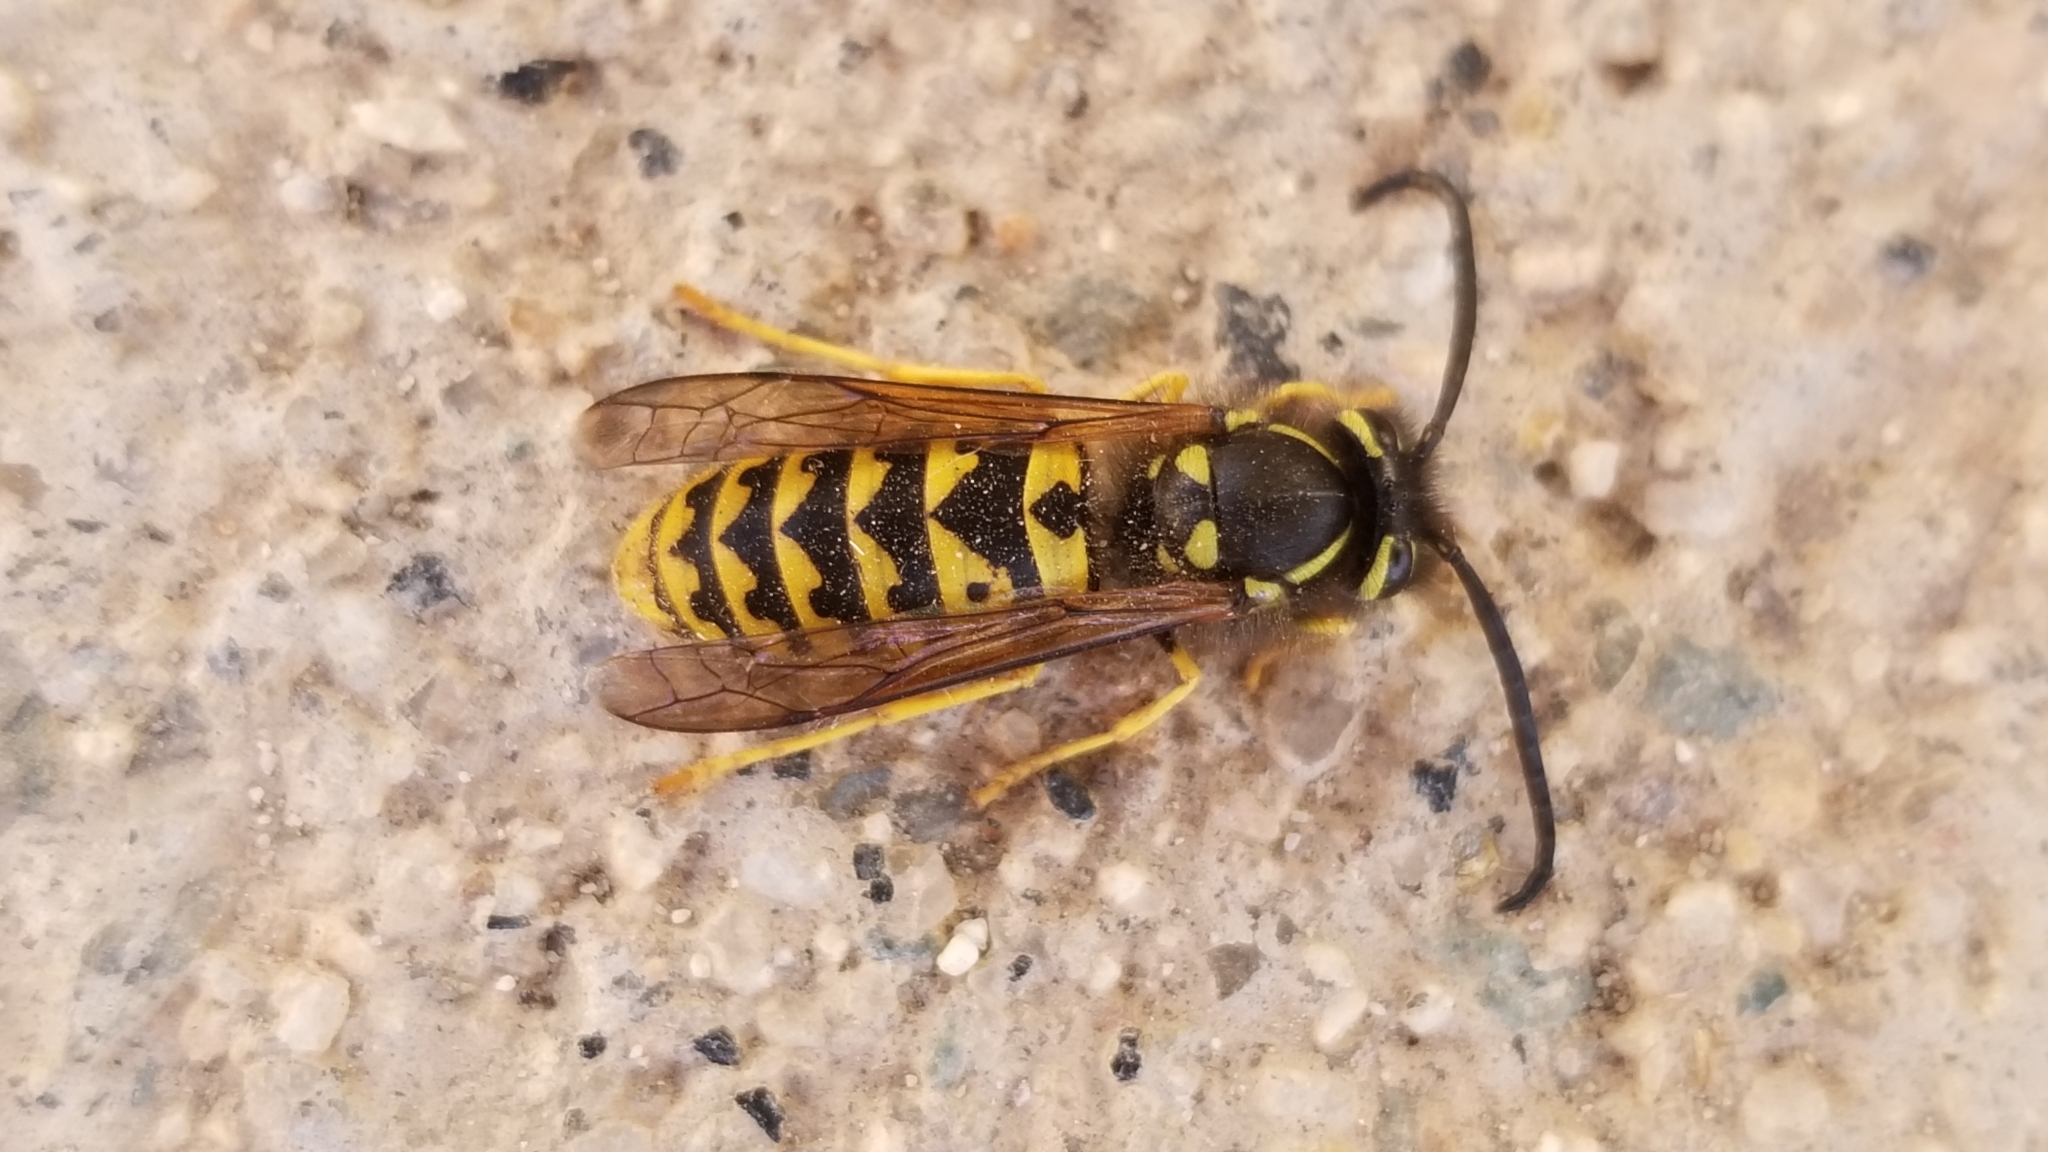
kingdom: Animalia
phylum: Arthropoda
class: Insecta
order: Hymenoptera
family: Vespidae
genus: Vespula
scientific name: Vespula pensylvanica
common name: Western yellowjacket
